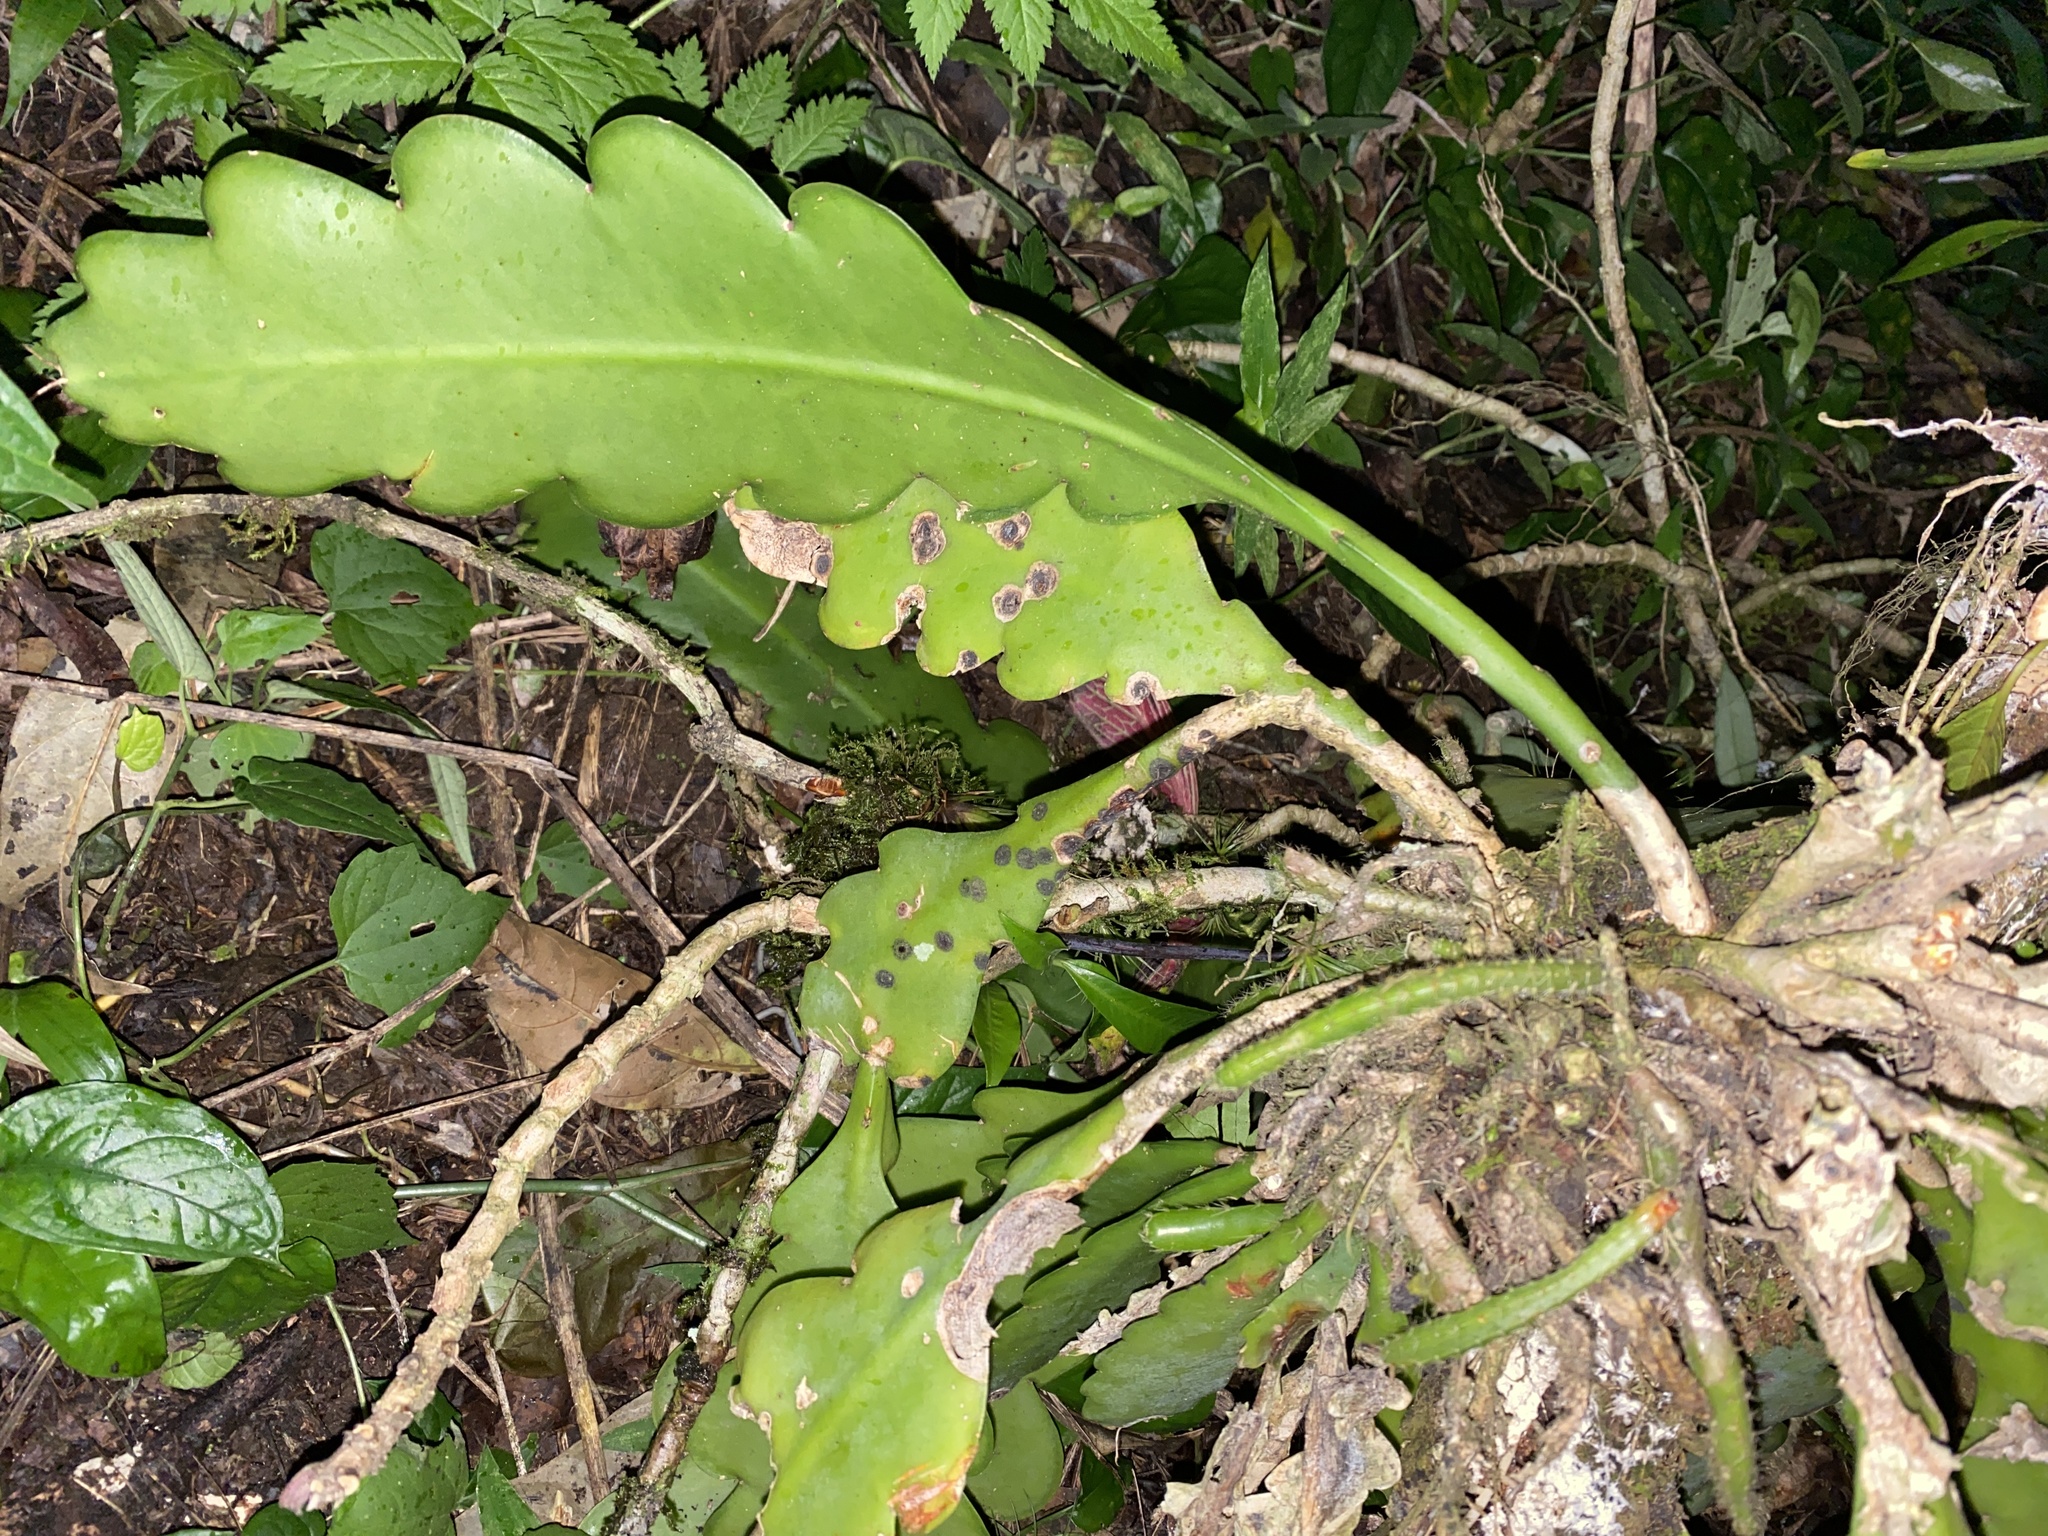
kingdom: Plantae
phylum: Tracheophyta
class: Magnoliopsida
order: Caryophyllales
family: Cactaceae
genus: Disocactus
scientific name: Disocactus crenatus
